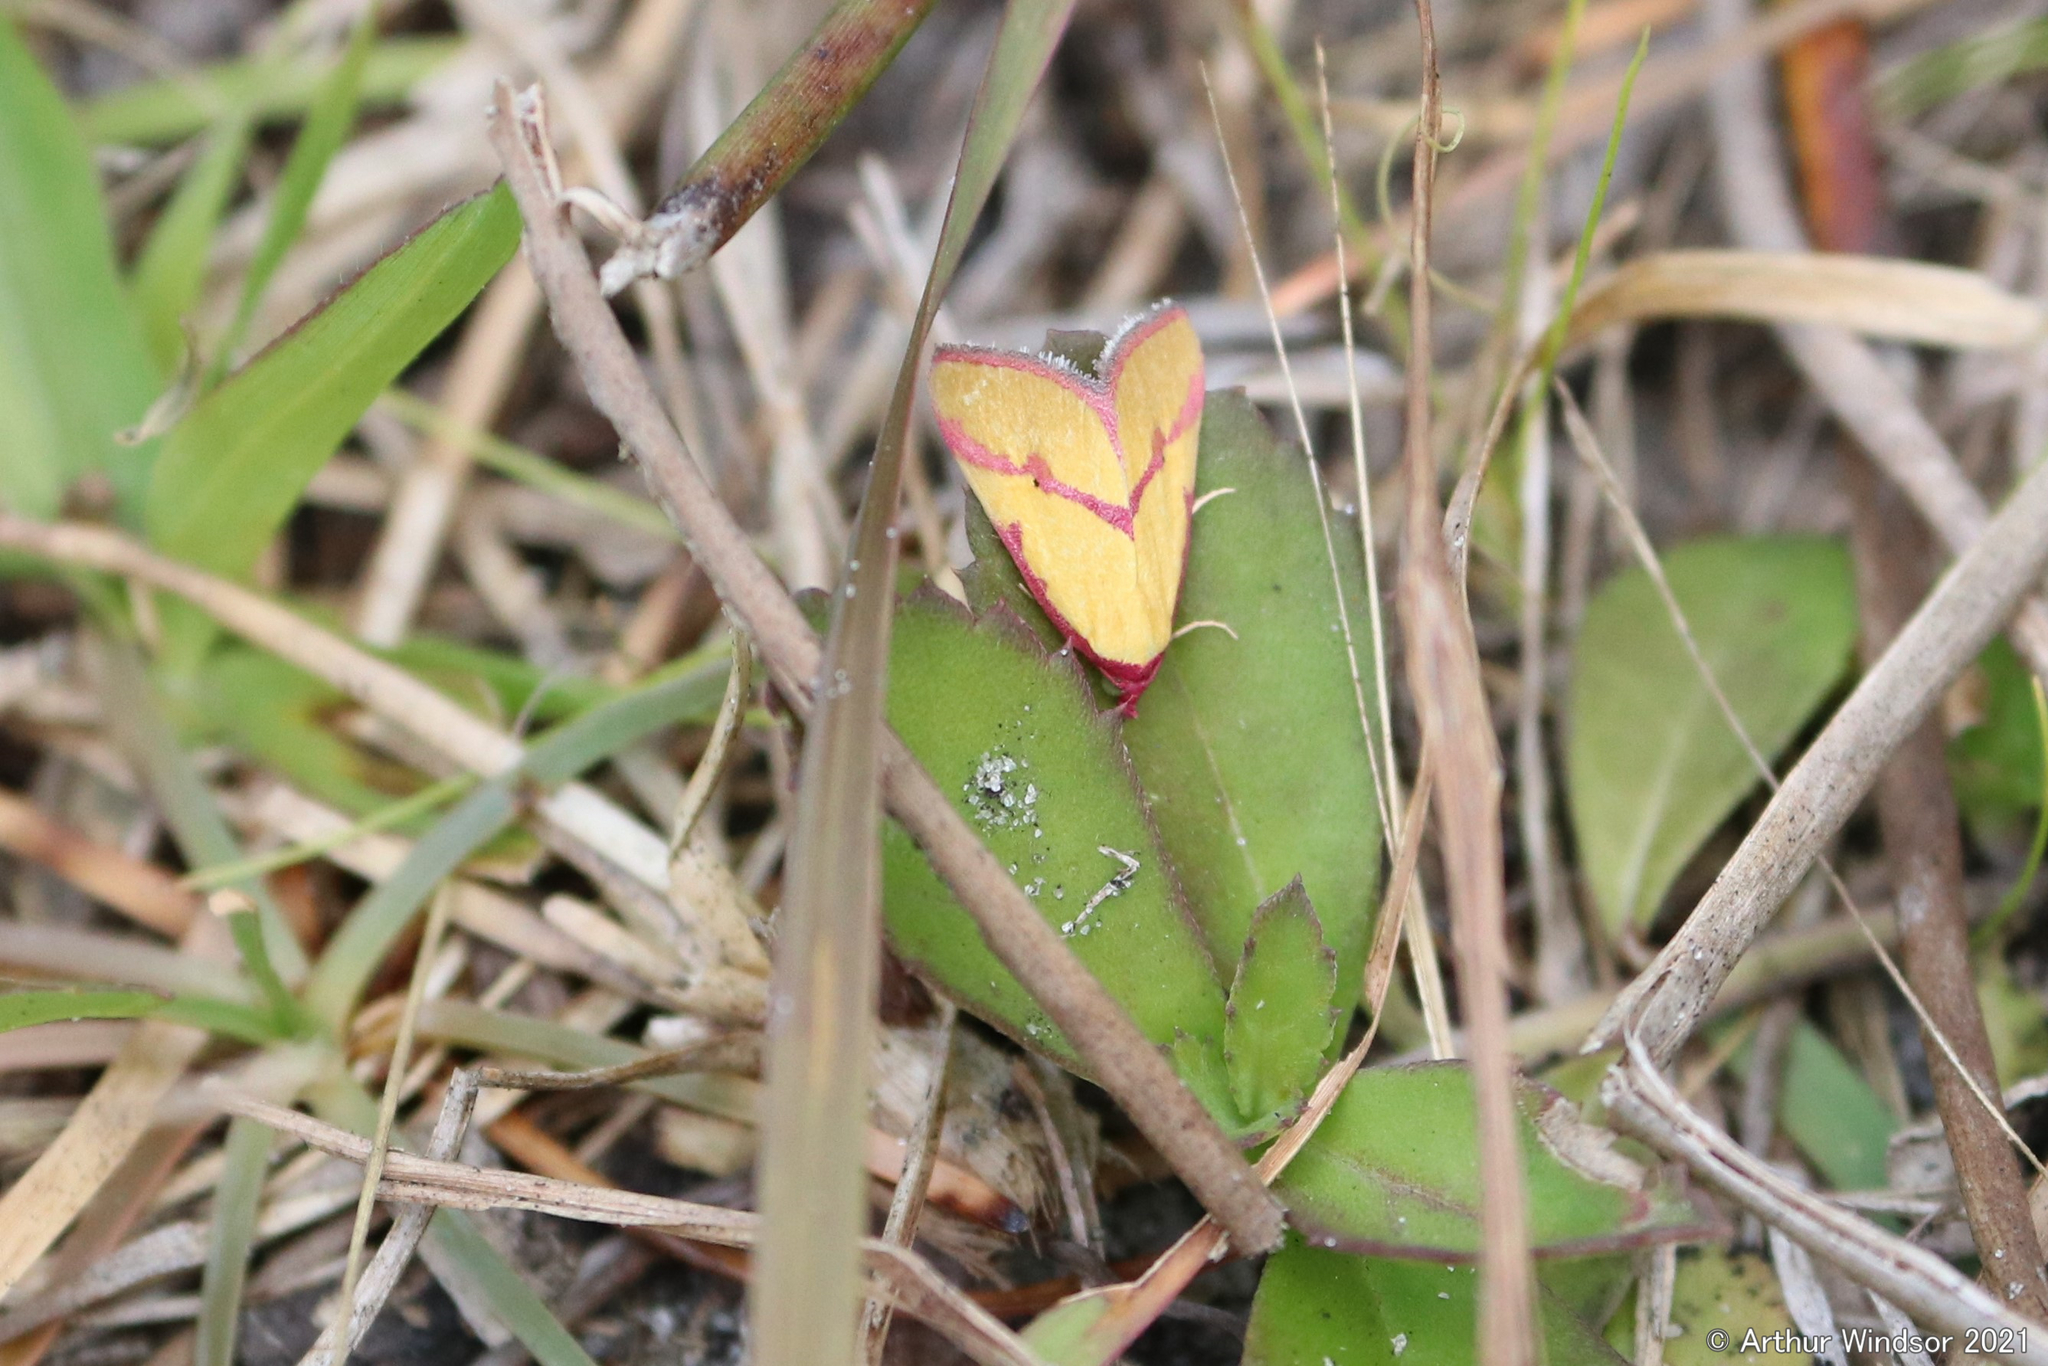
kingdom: Animalia
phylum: Arthropoda
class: Insecta
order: Lepidoptera
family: Erebidae
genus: Phytometra
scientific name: Phytometra ernestinana
